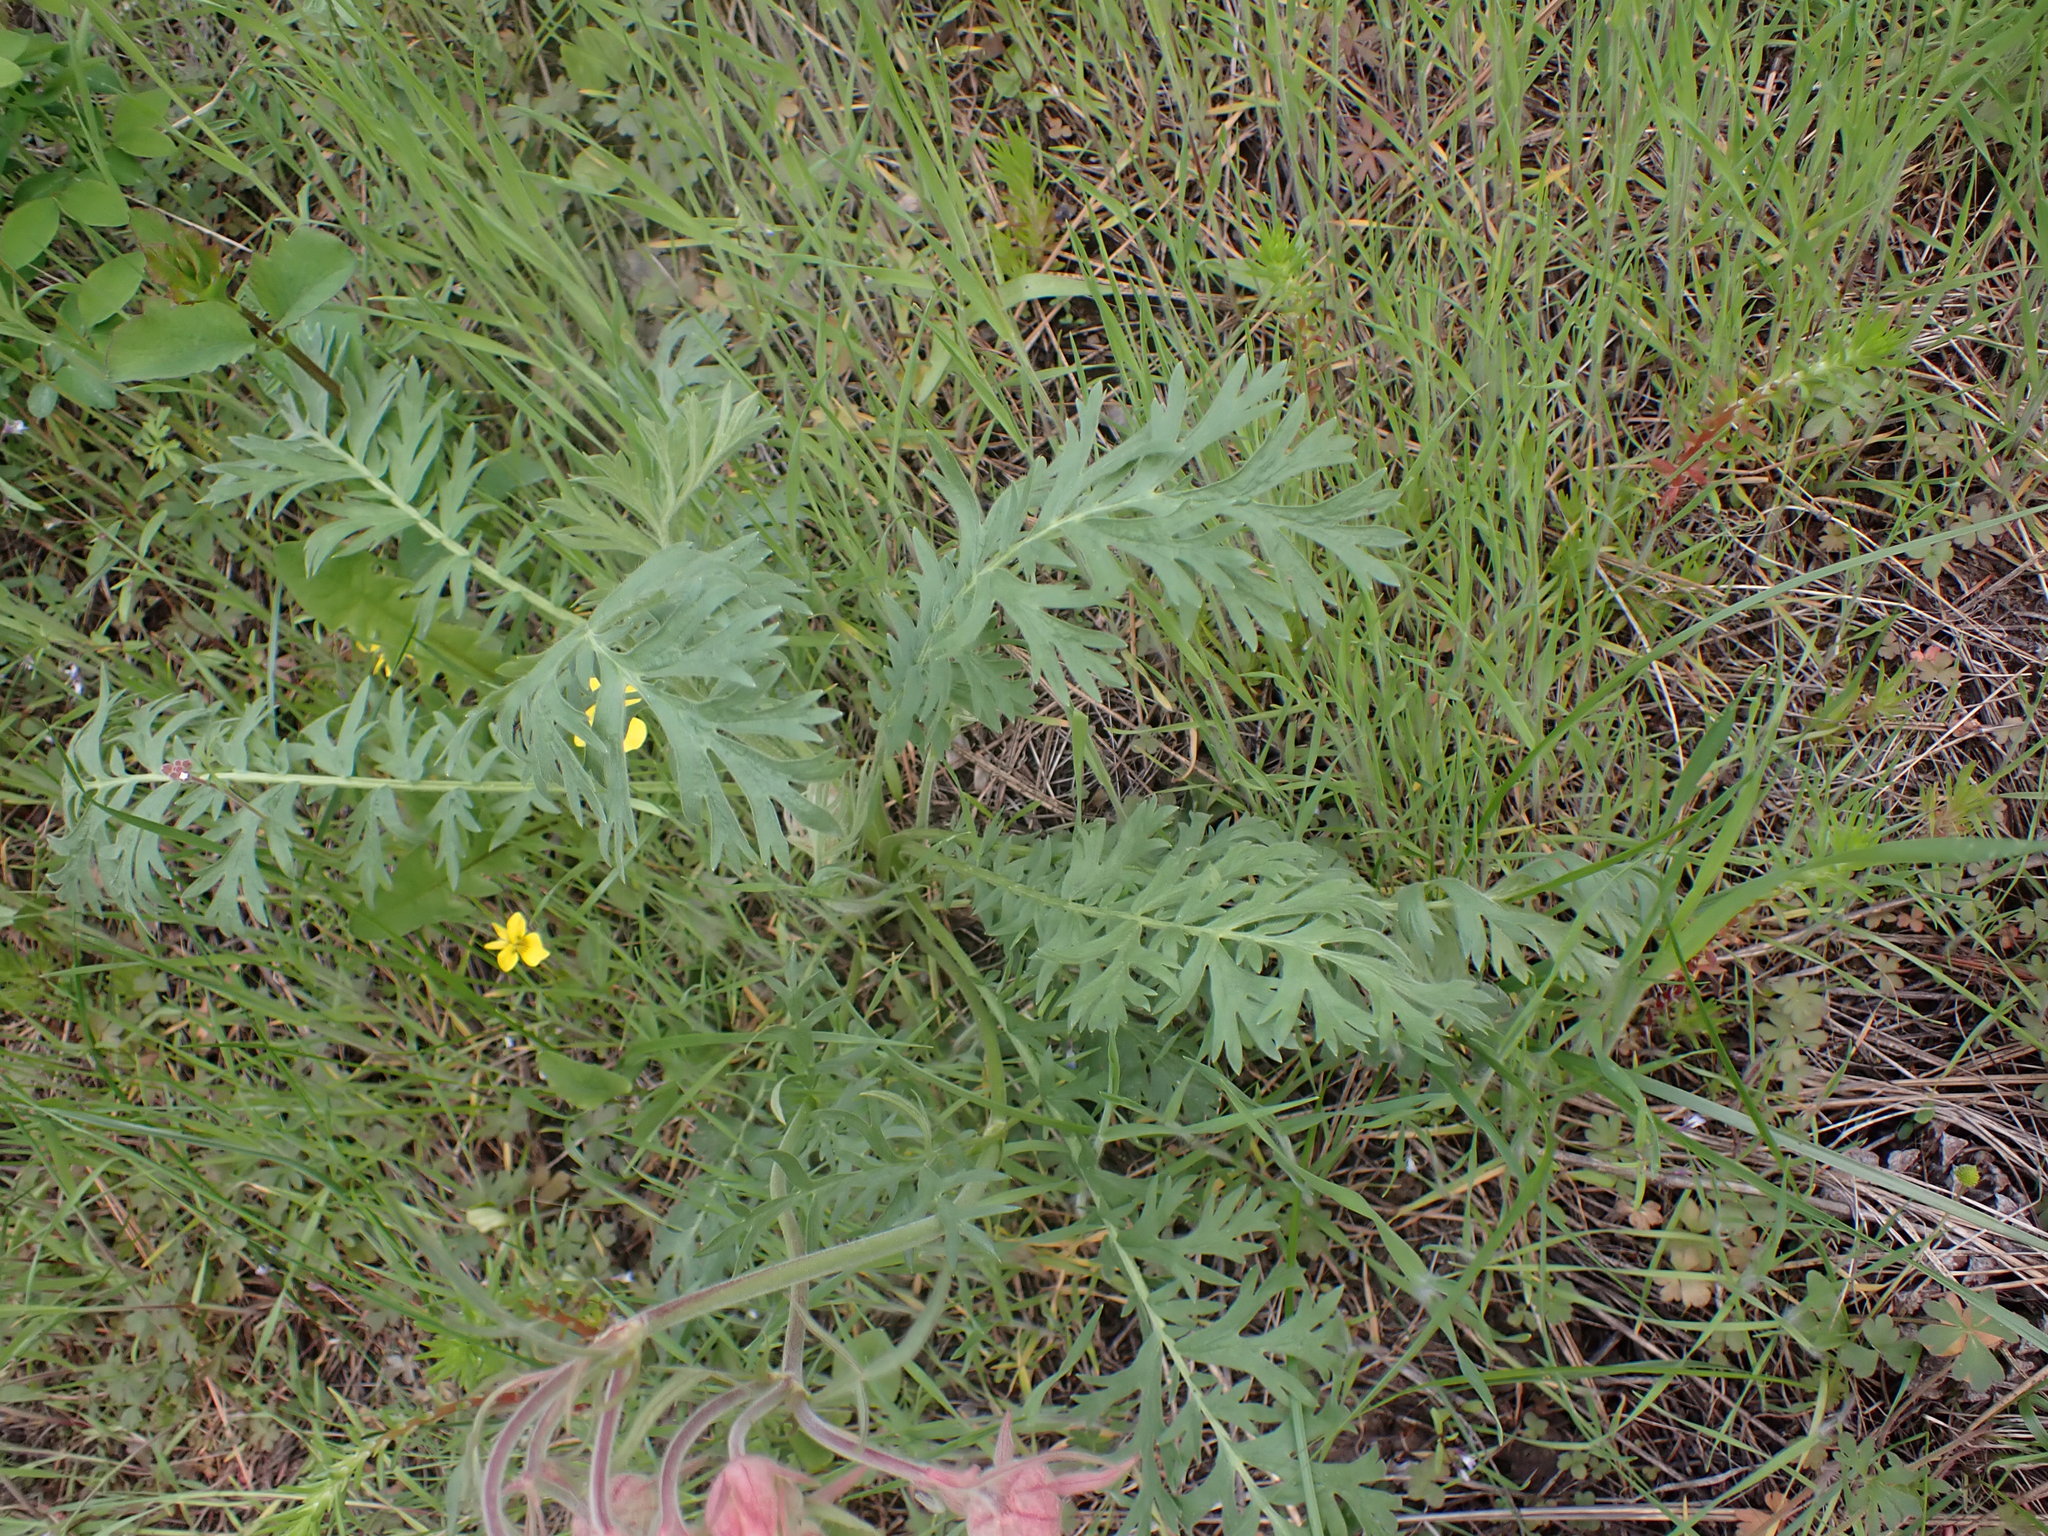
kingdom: Plantae
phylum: Tracheophyta
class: Magnoliopsida
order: Rosales
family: Rosaceae
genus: Geum
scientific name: Geum triflorum
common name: Old man's whiskers
